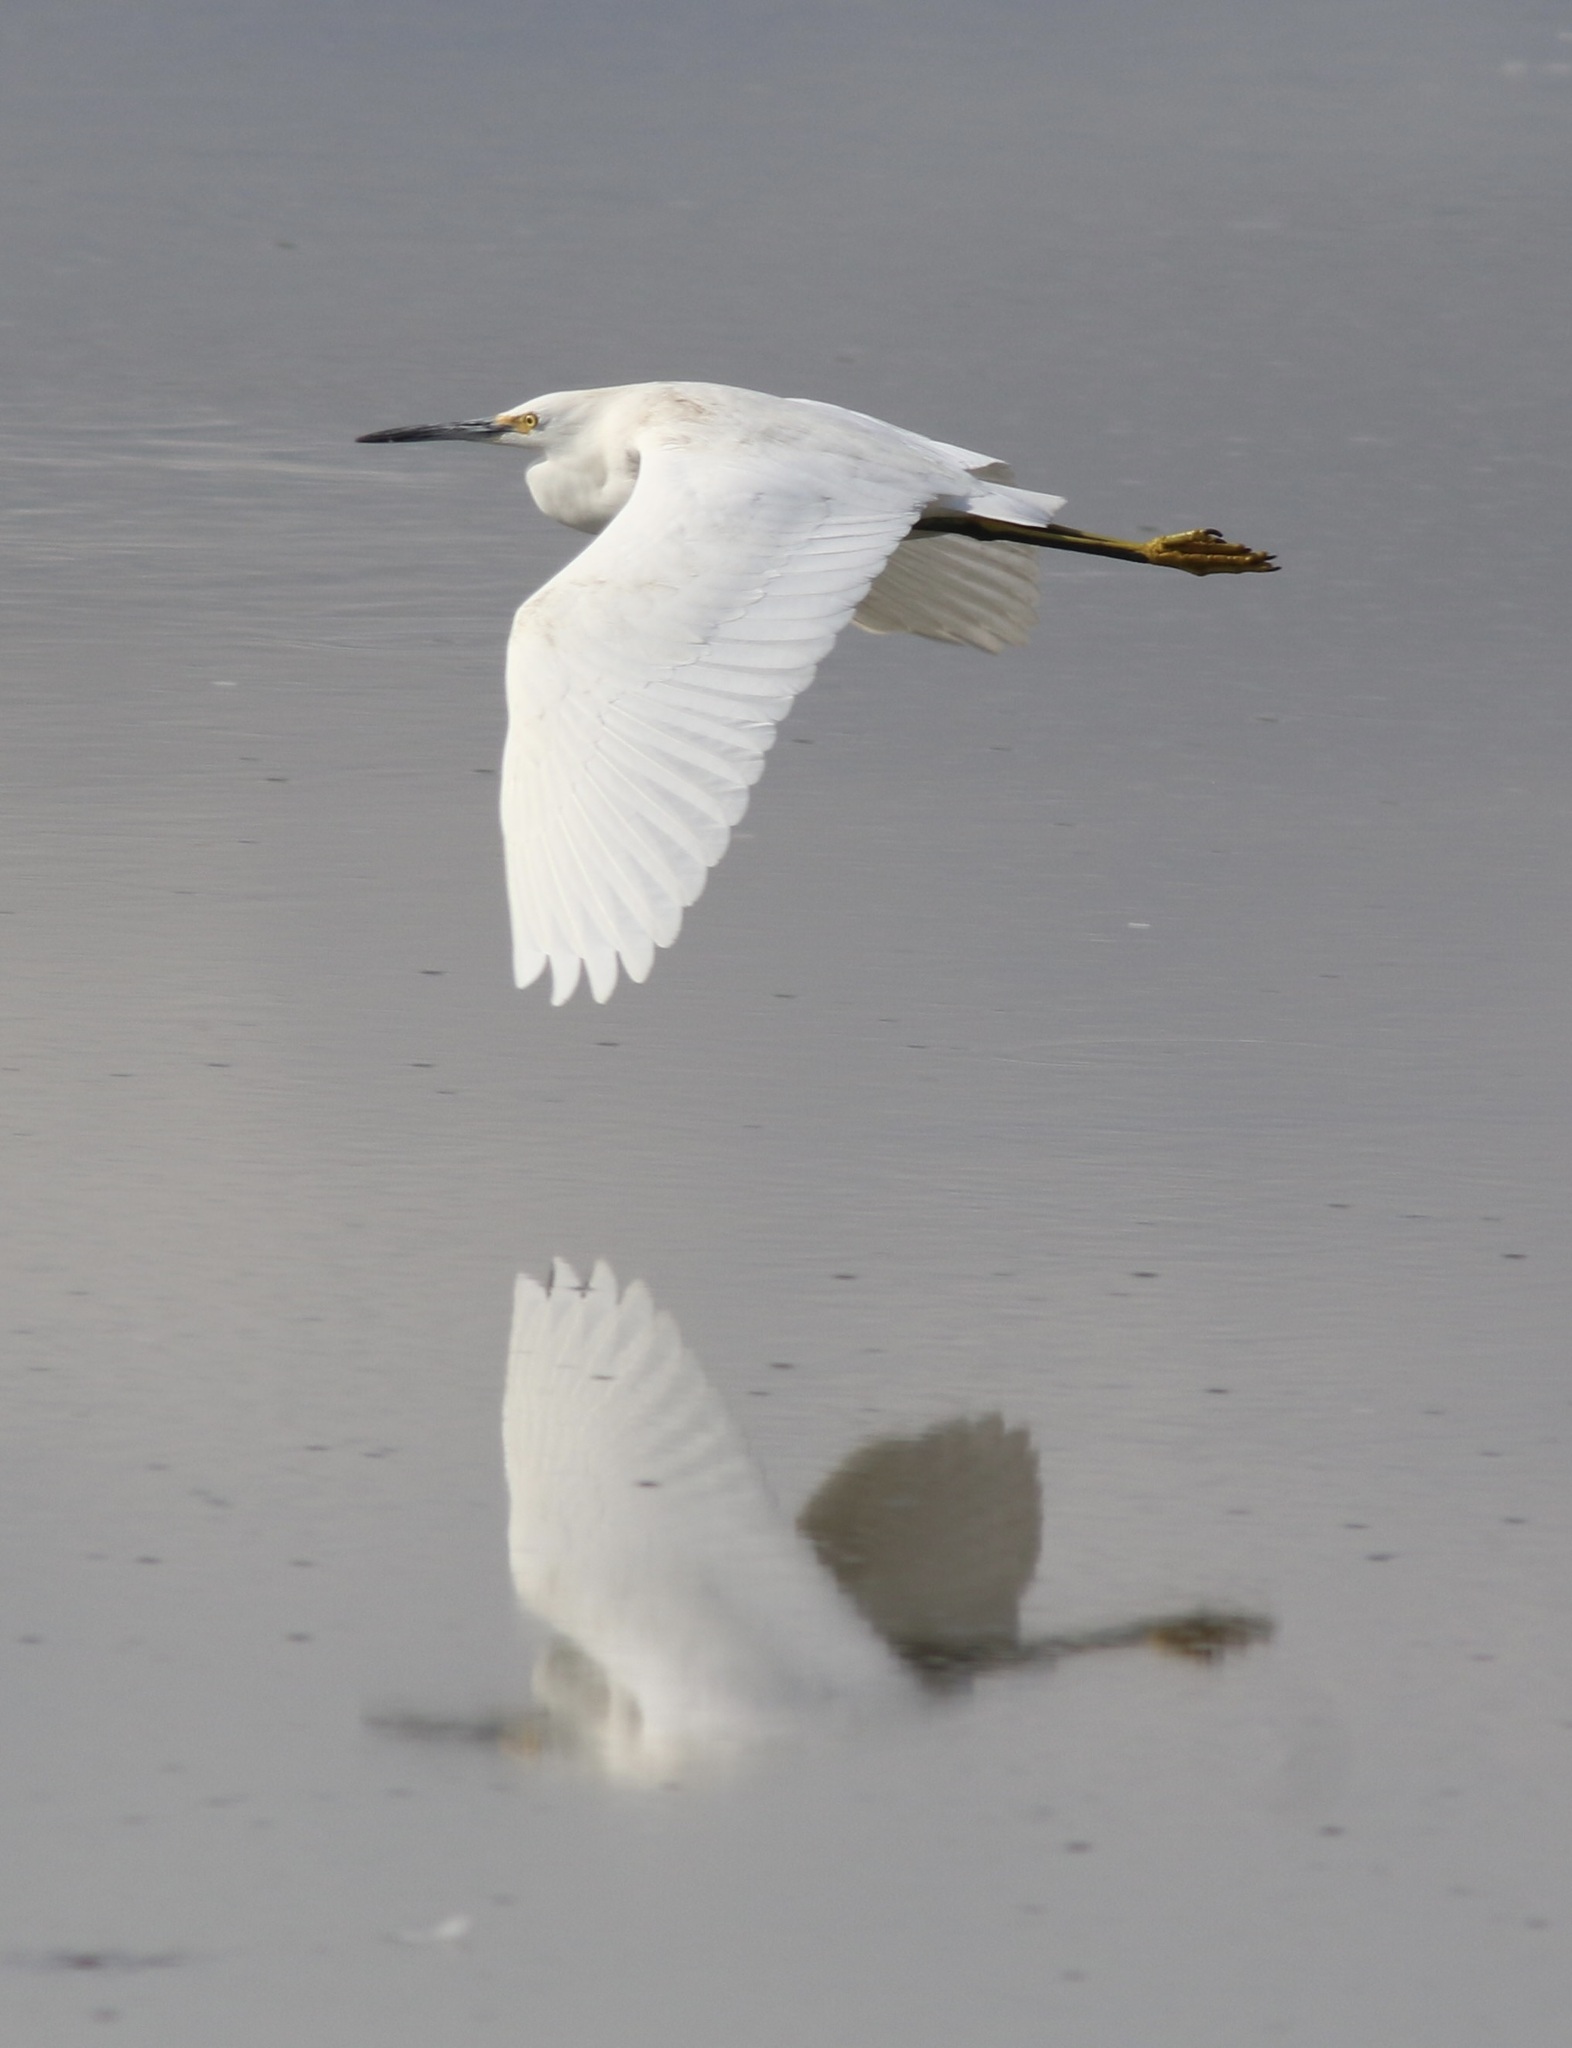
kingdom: Animalia
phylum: Chordata
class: Aves
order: Pelecaniformes
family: Ardeidae
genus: Egretta
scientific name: Egretta thula
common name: Snowy egret
